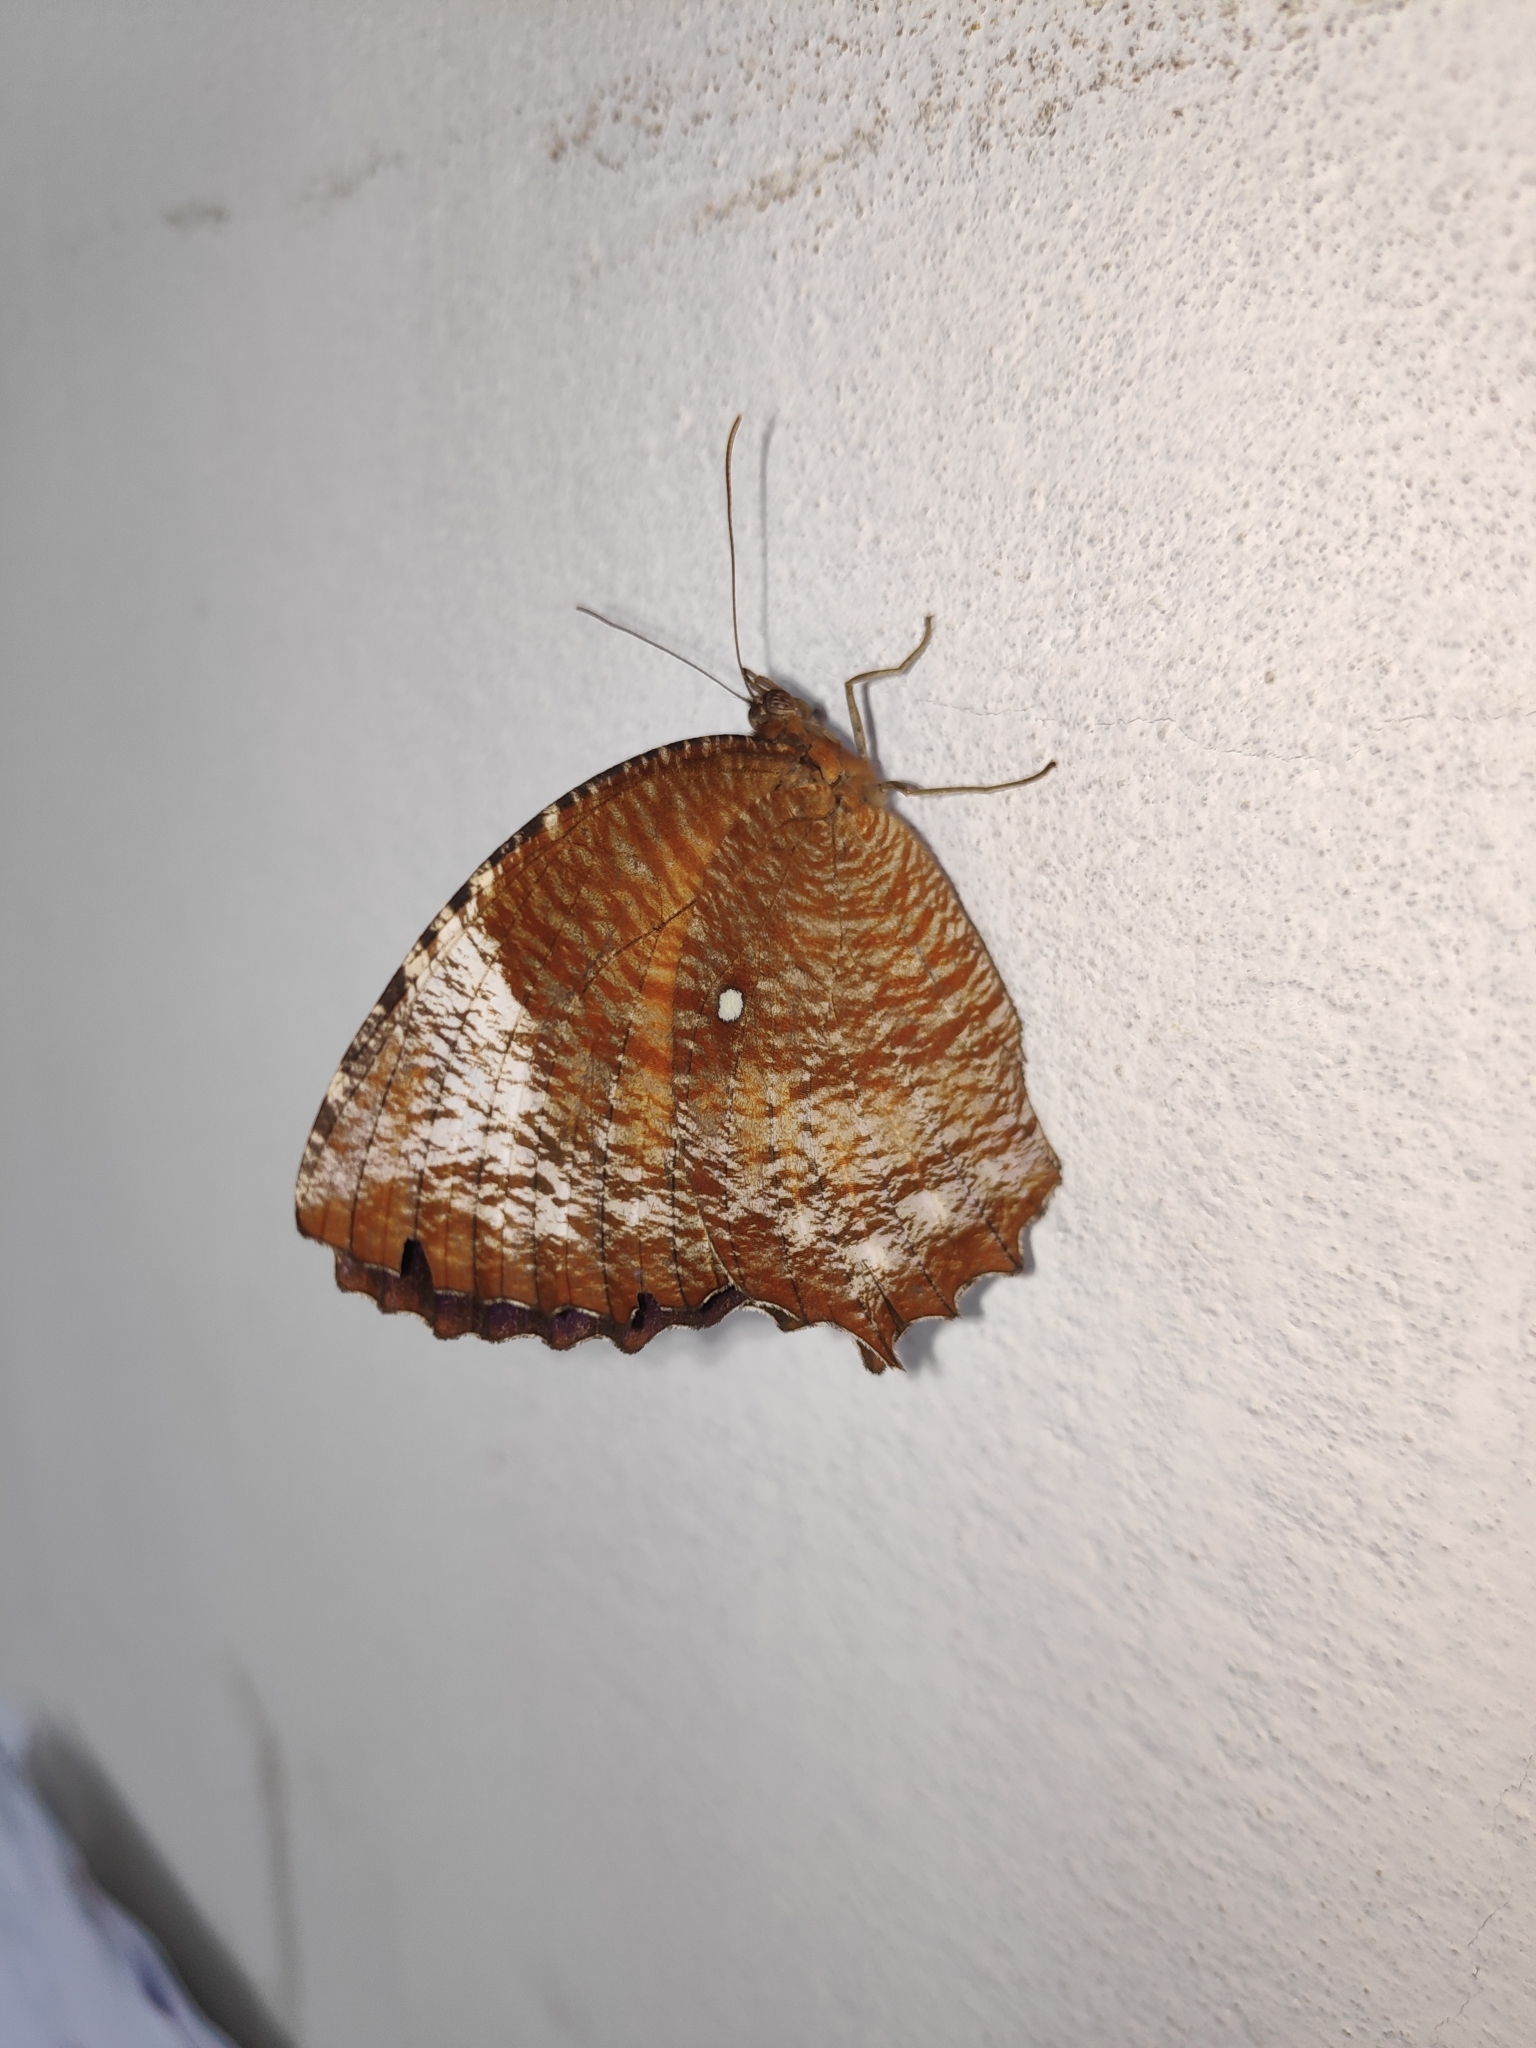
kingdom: Animalia
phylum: Arthropoda
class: Insecta
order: Lepidoptera
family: Nymphalidae
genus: Elymnias
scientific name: Elymnias hypermnestra
